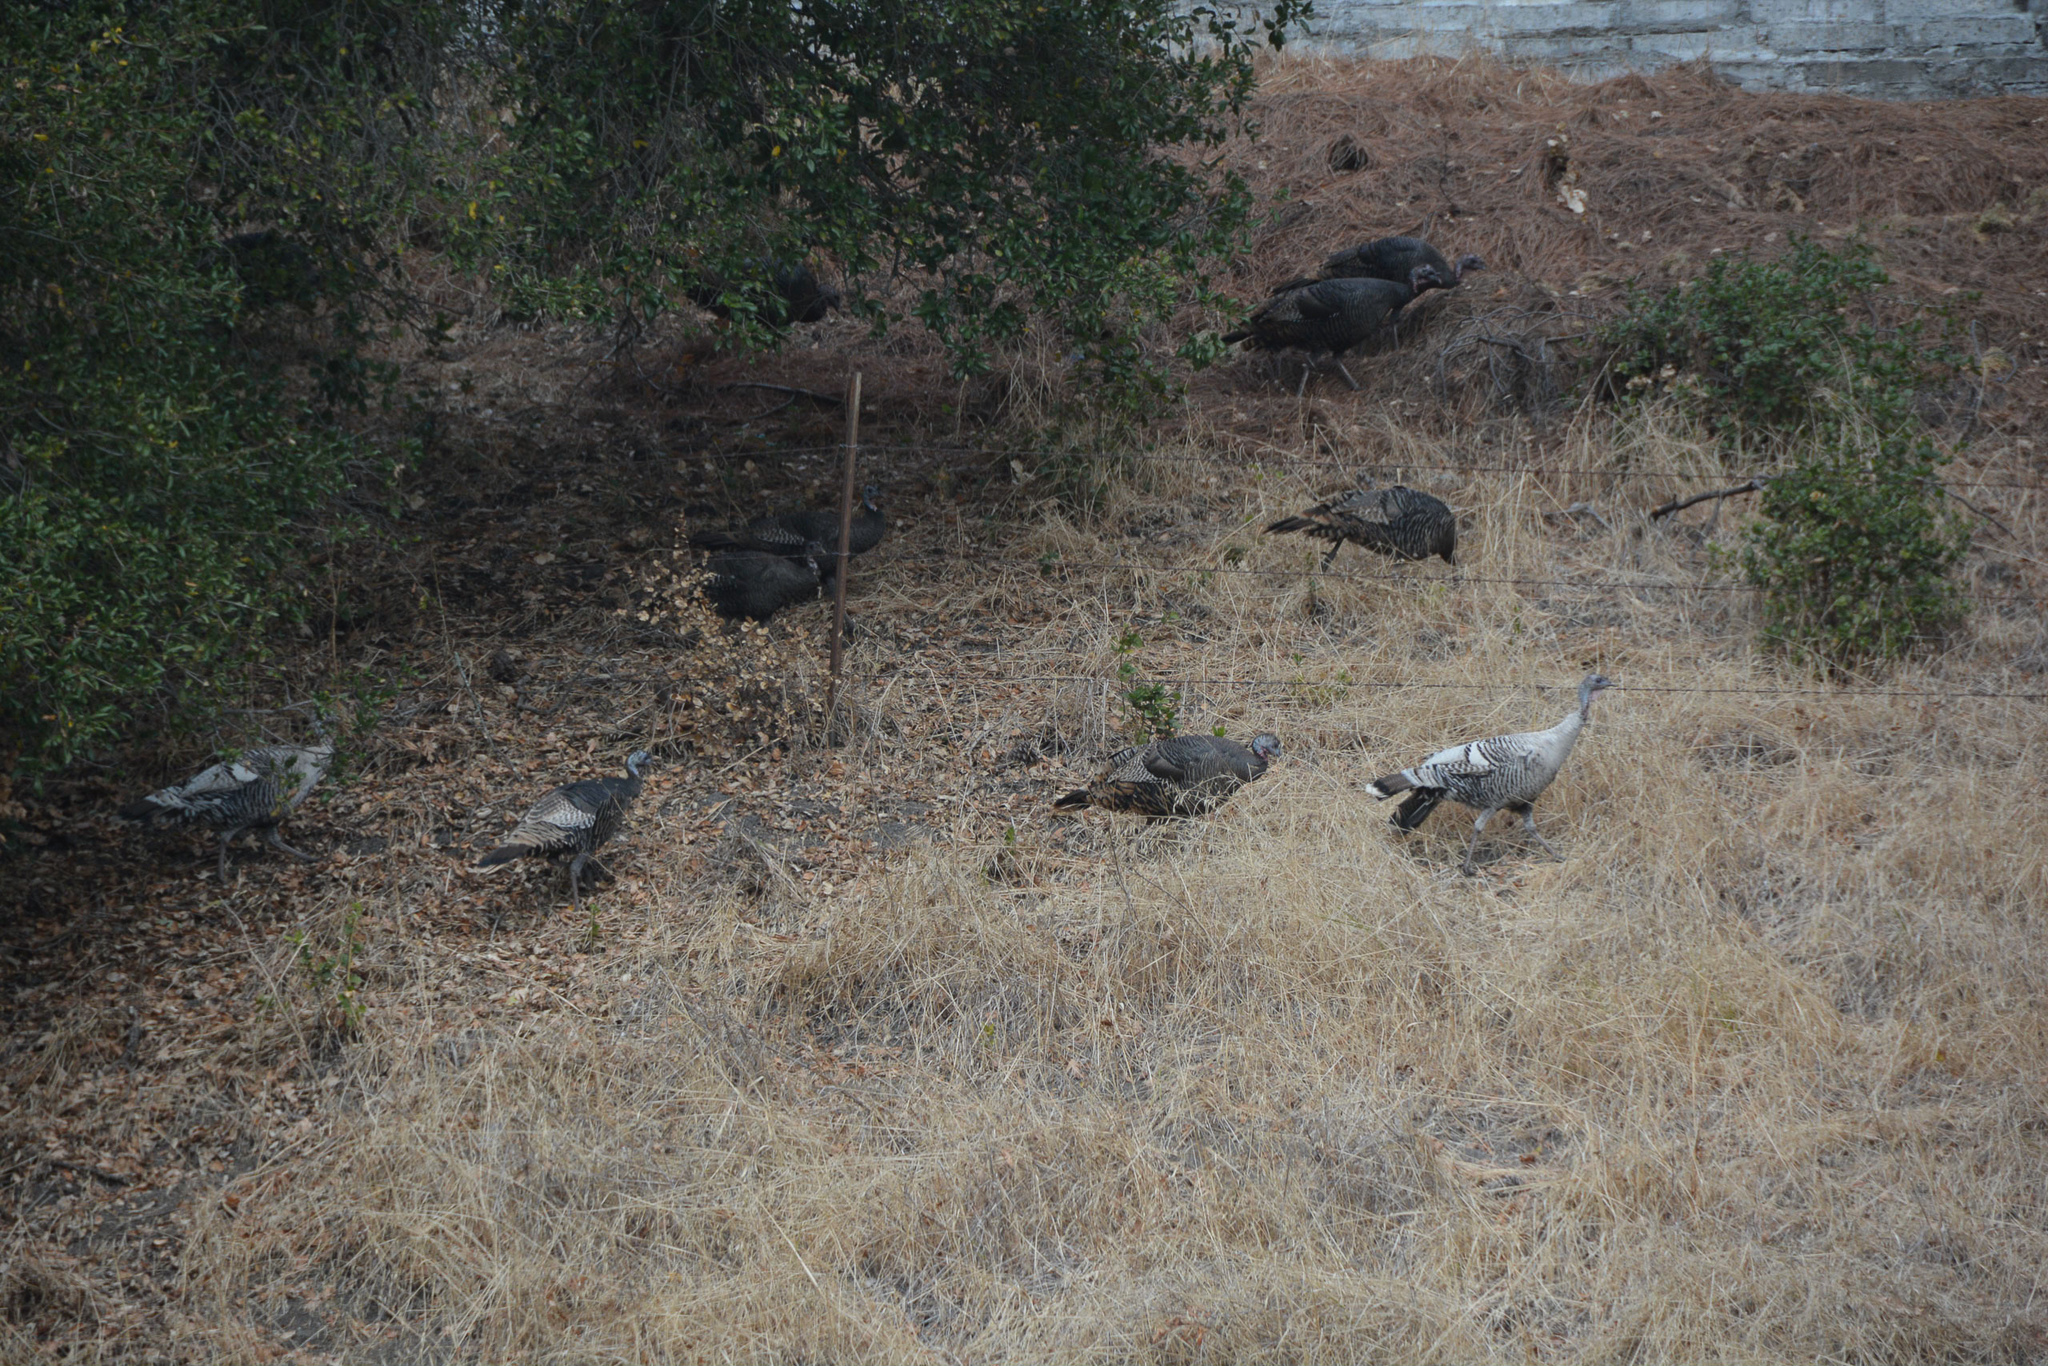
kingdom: Animalia
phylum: Chordata
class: Aves
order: Galliformes
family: Phasianidae
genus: Meleagris
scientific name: Meleagris gallopavo
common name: Wild turkey
